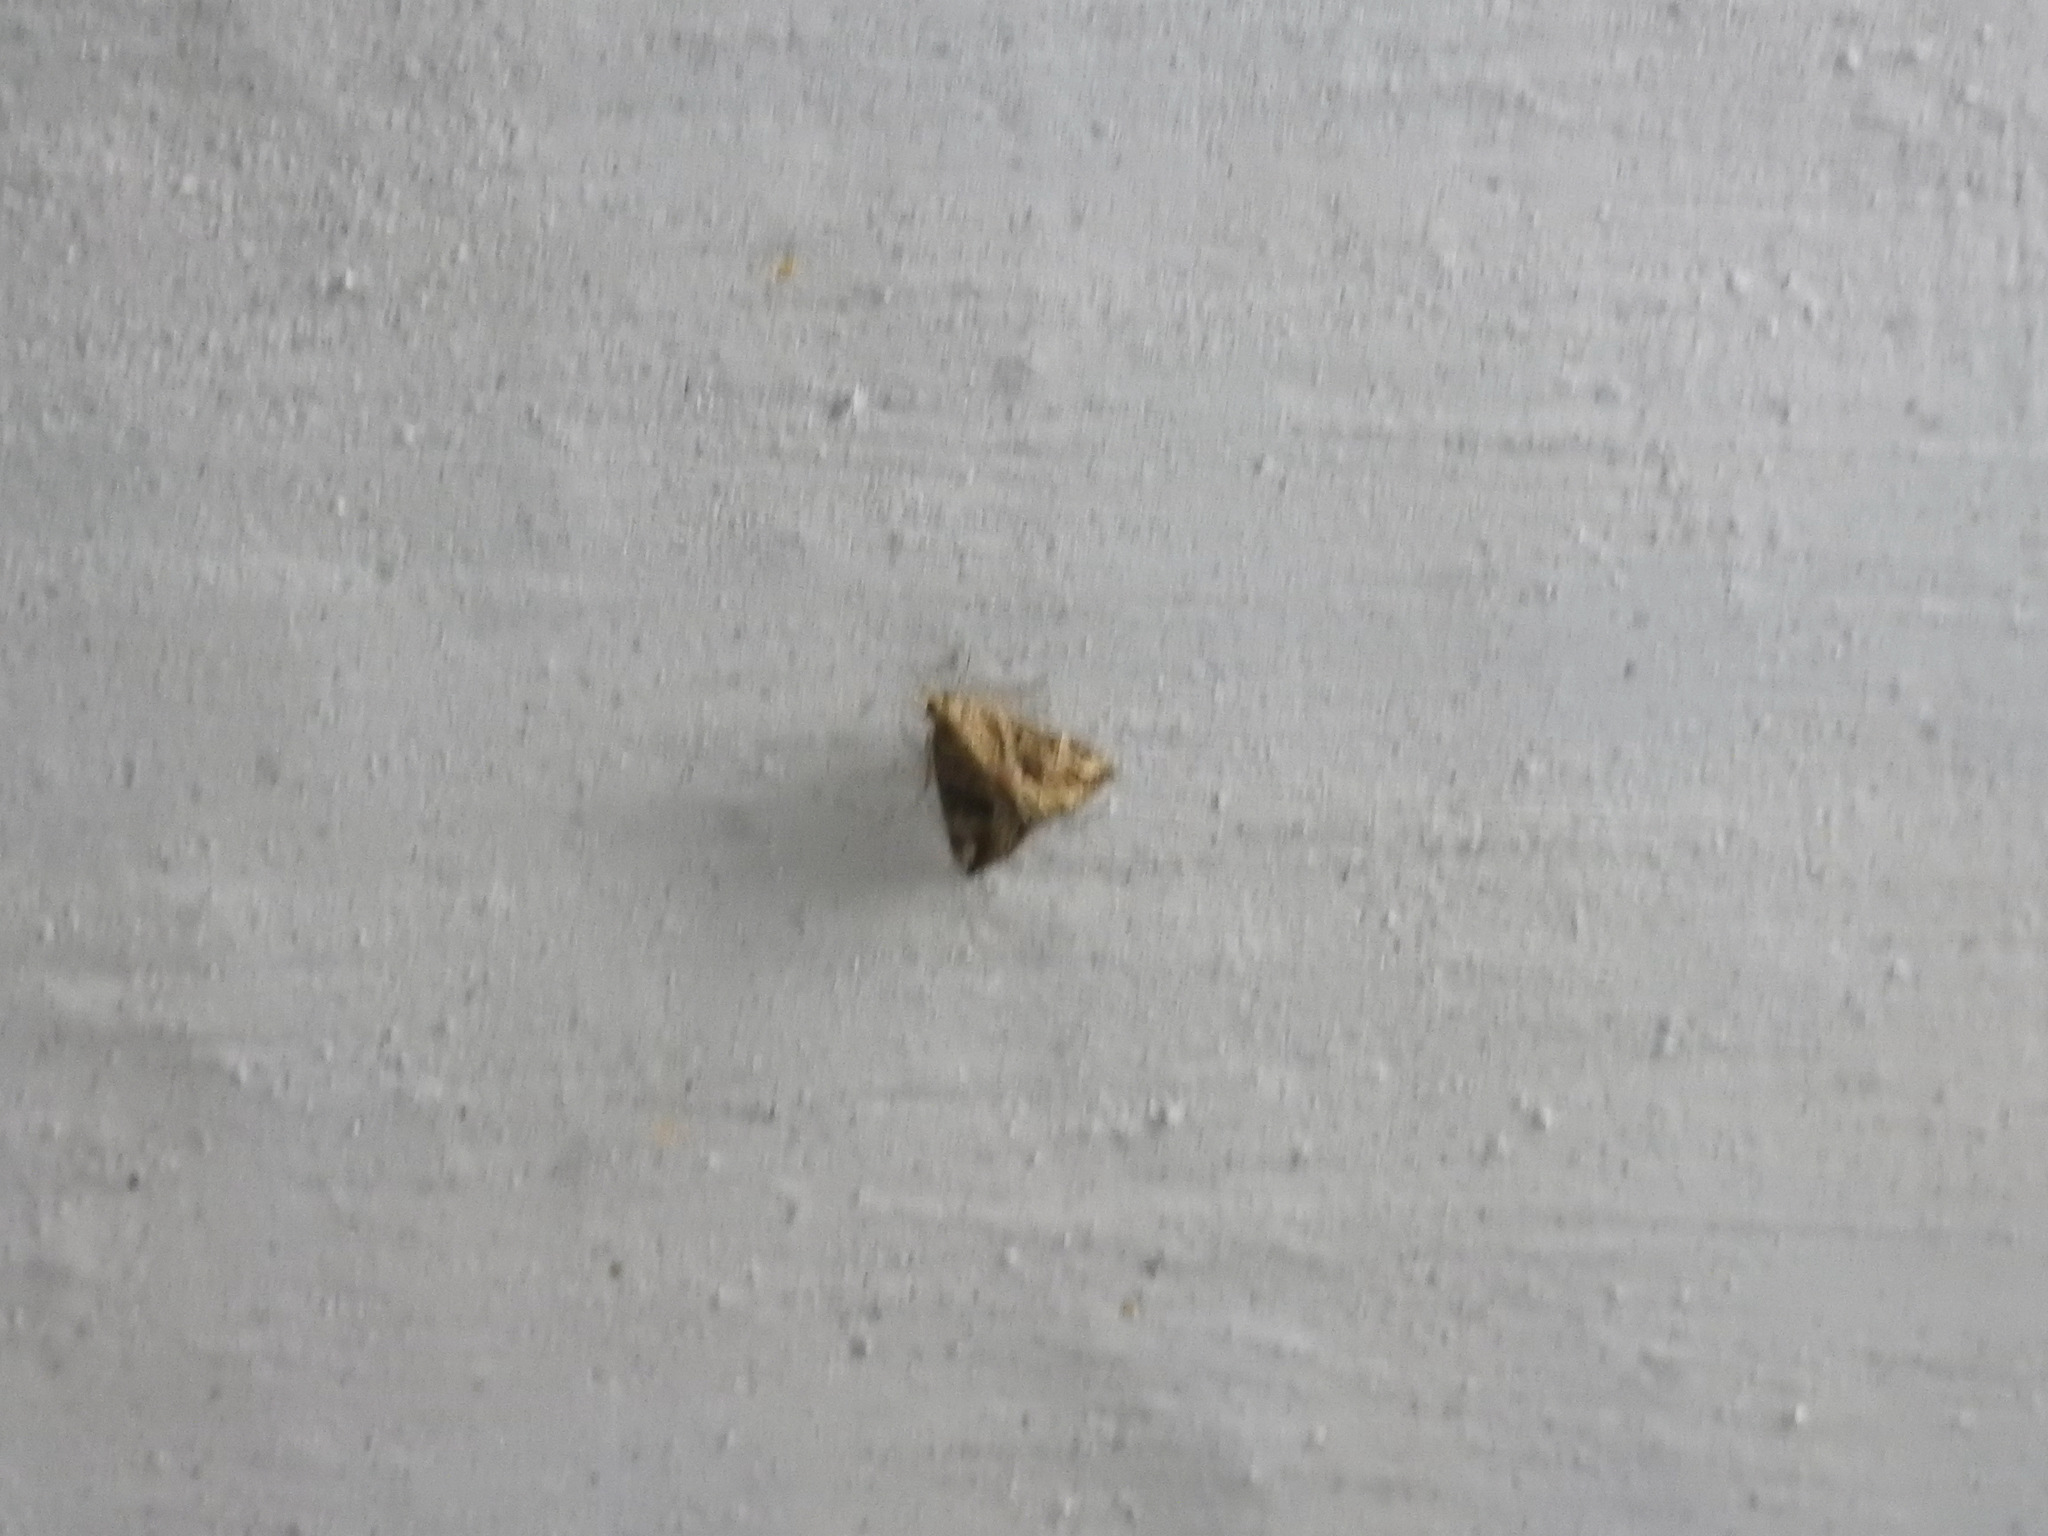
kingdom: Animalia
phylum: Arthropoda
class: Insecta
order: Lepidoptera
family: Erebidae
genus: Hypena
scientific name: Hypena commixtalis
